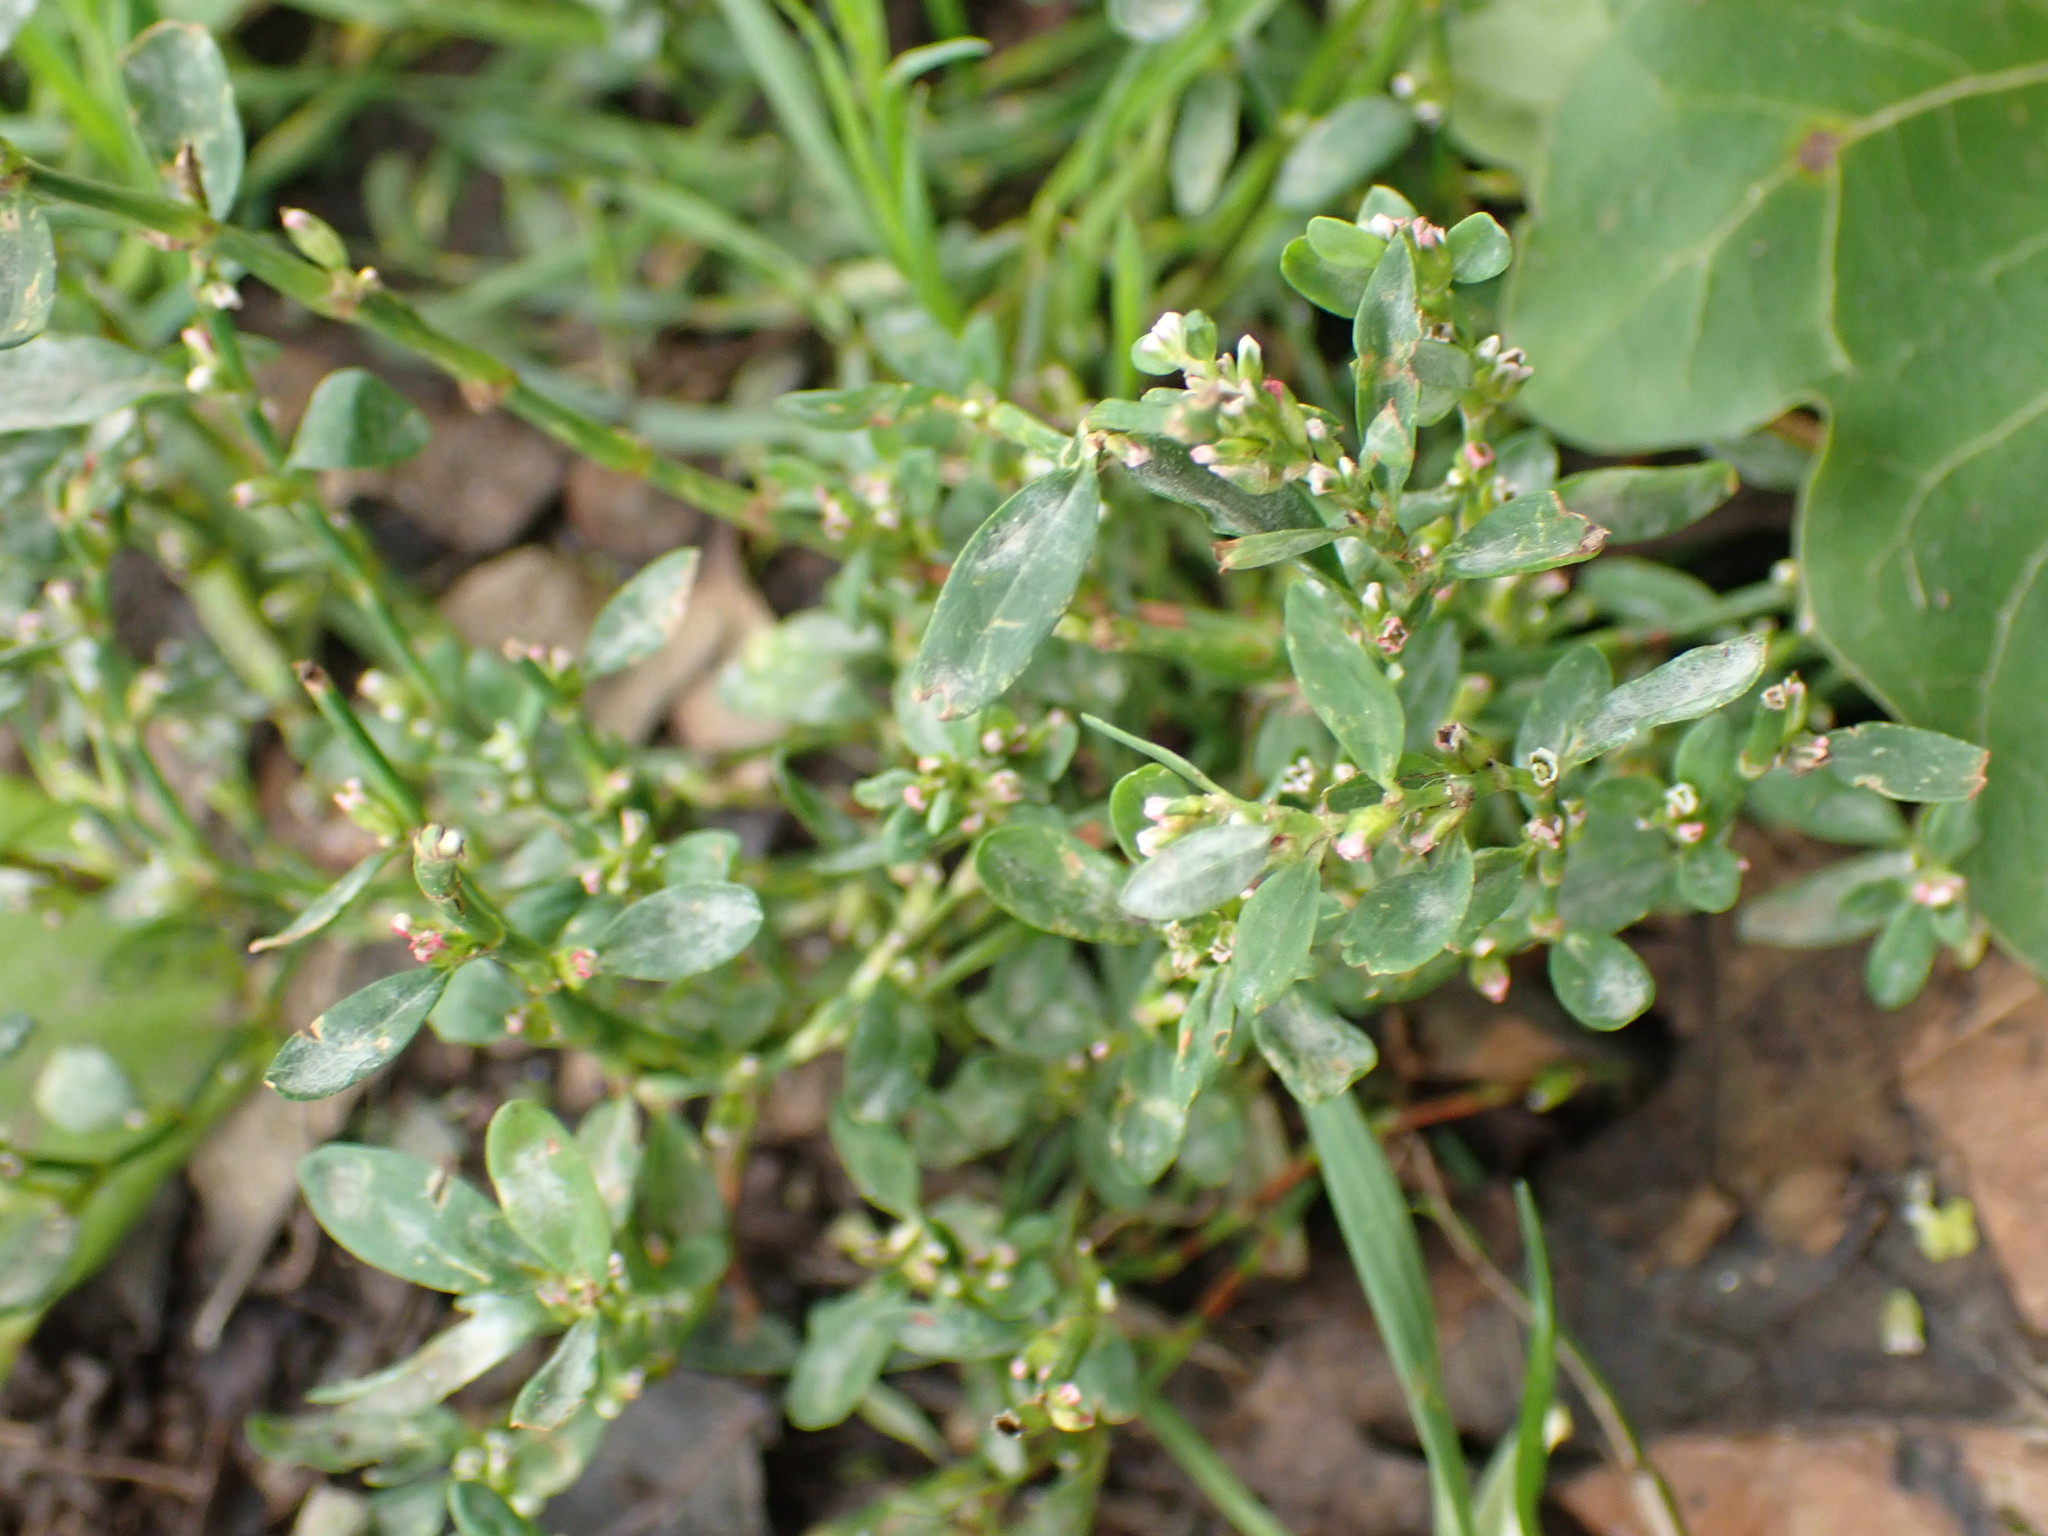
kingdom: Plantae
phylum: Tracheophyta
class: Magnoliopsida
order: Caryophyllales
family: Polygonaceae
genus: Polygonum
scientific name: Polygonum aviculare
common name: Prostrate knotweed
